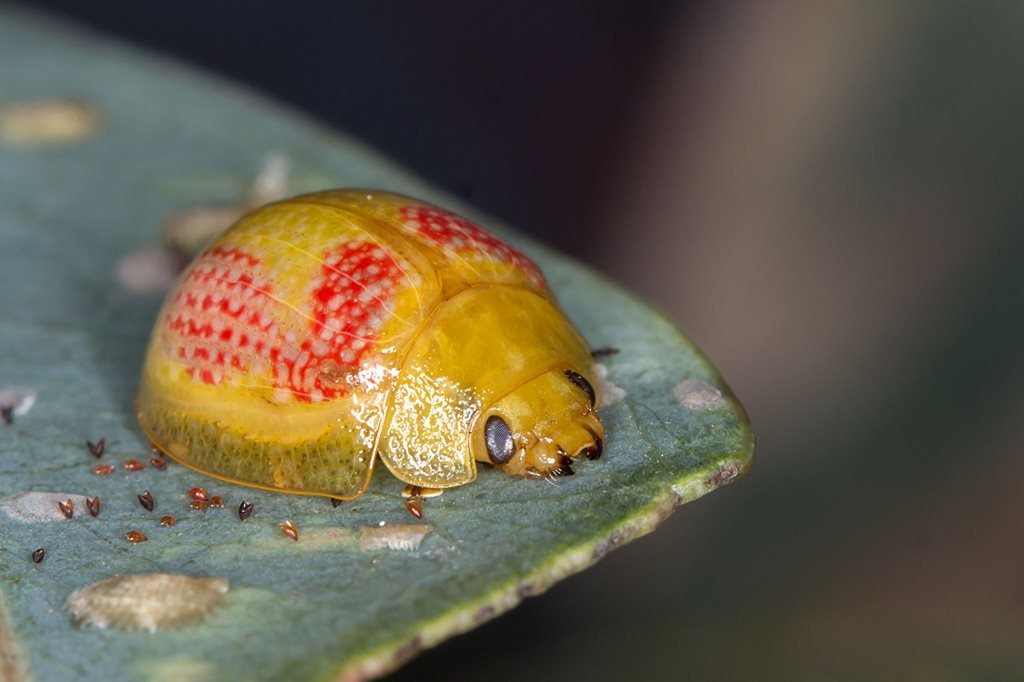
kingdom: Animalia
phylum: Arthropoda
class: Insecta
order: Coleoptera
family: Chrysomelidae
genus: Paropsisterna
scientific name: Paropsisterna
